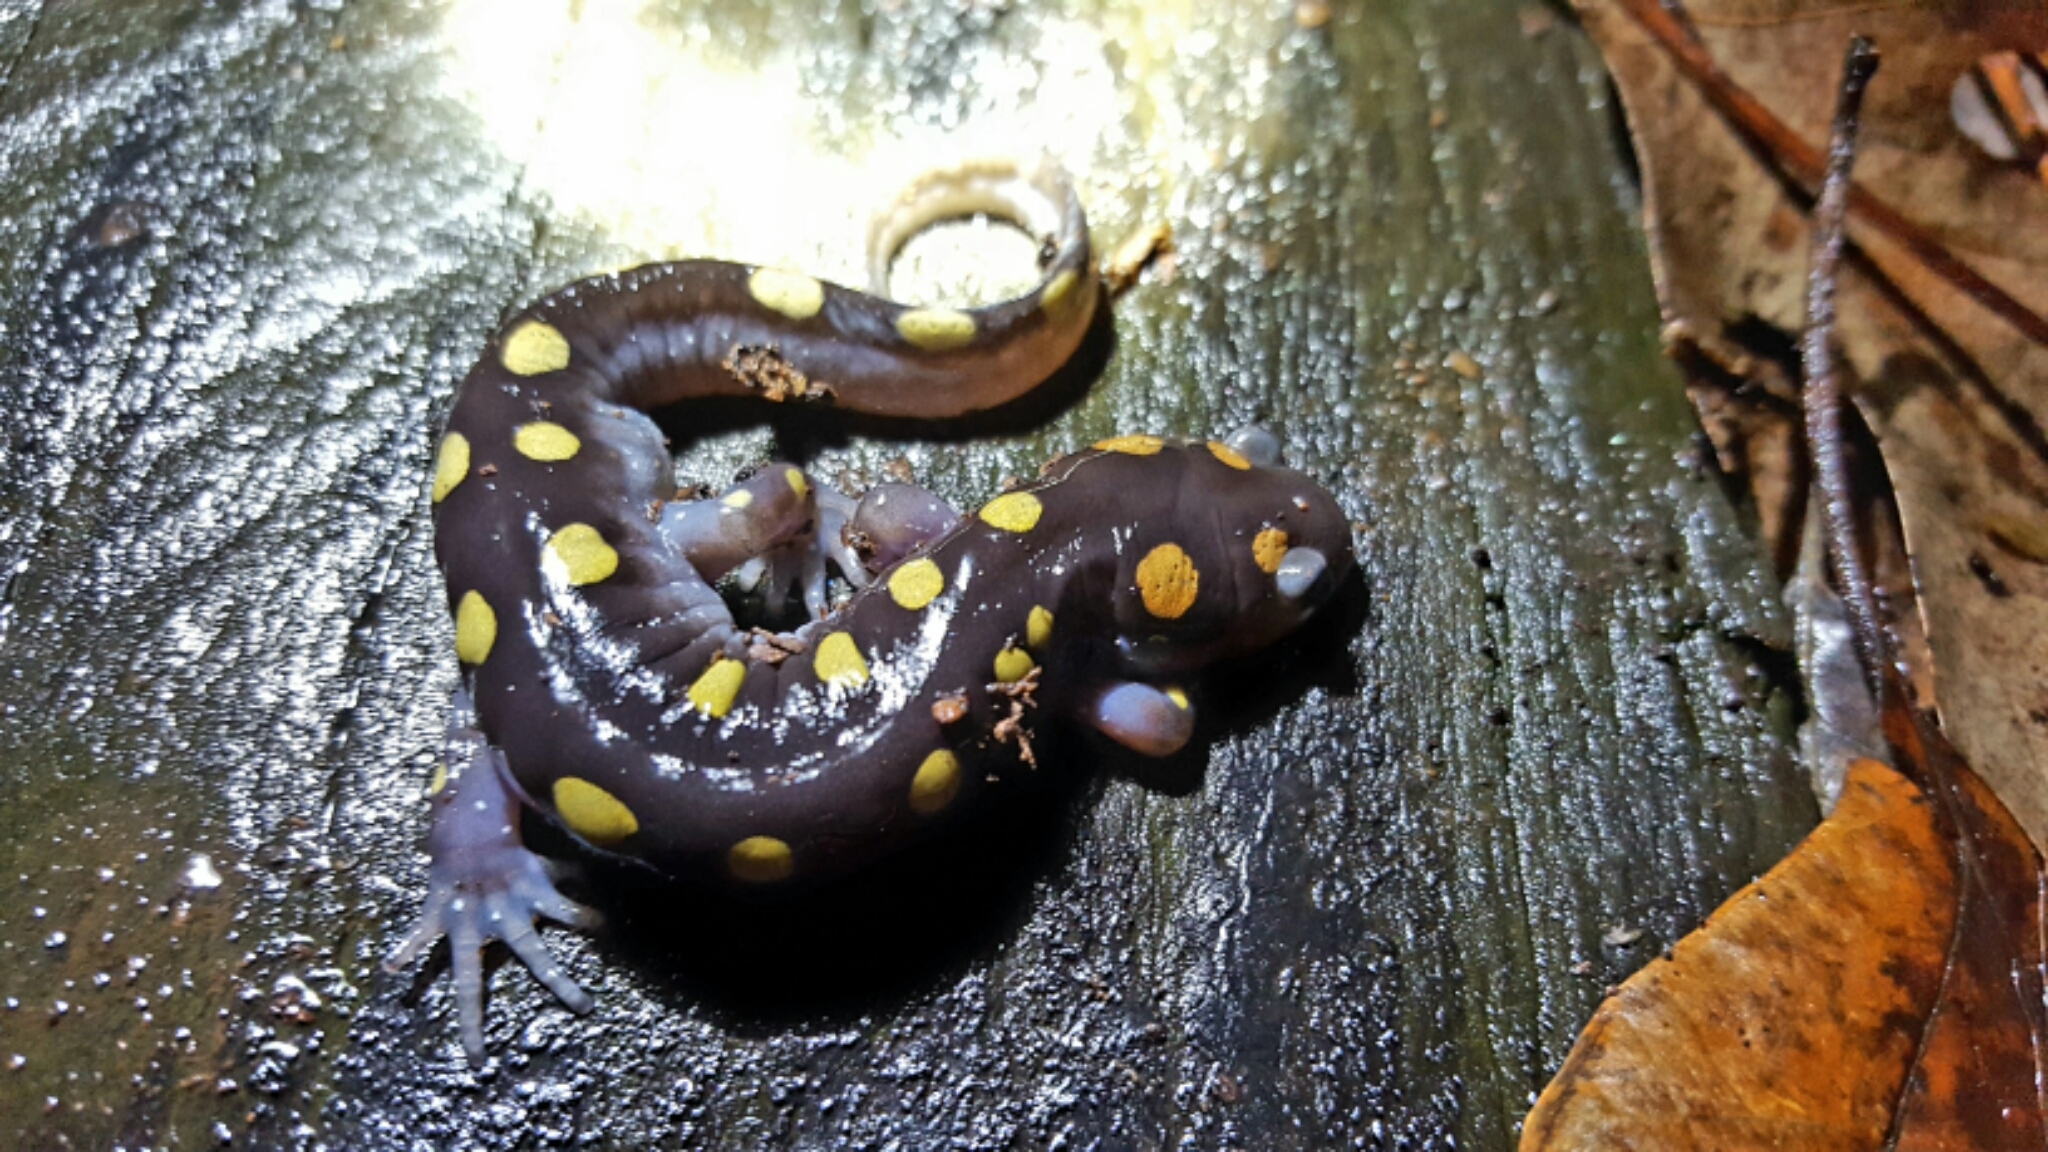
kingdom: Animalia
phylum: Chordata
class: Amphibia
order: Caudata
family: Ambystomatidae
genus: Ambystoma
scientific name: Ambystoma maculatum
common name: Spotted salamander
